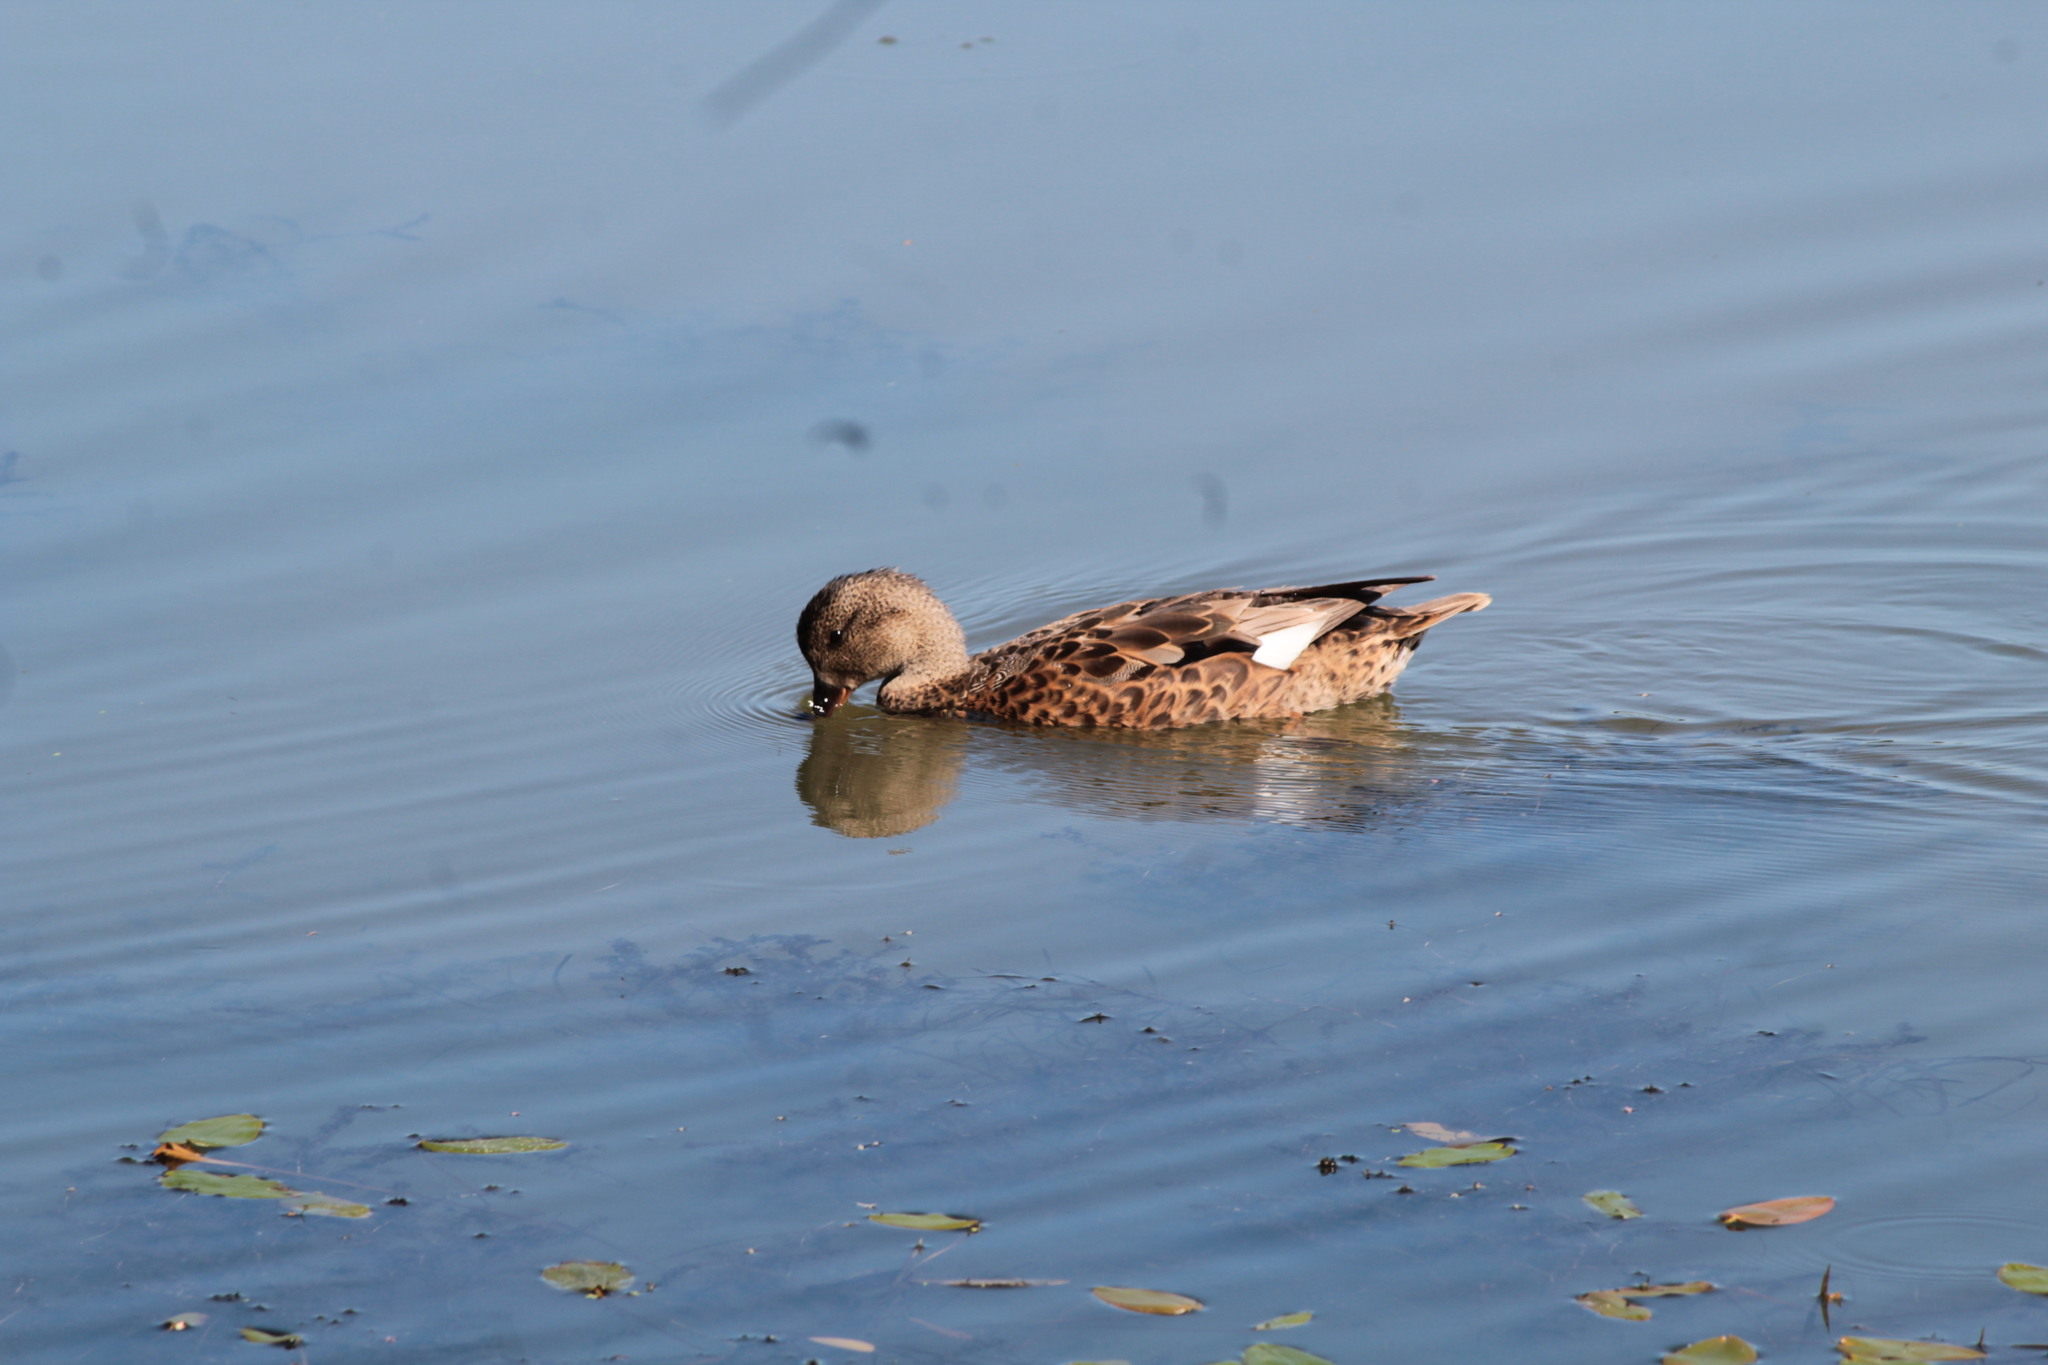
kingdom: Animalia
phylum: Chordata
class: Aves
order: Anseriformes
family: Anatidae
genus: Mareca
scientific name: Mareca strepera
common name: Gadwall
